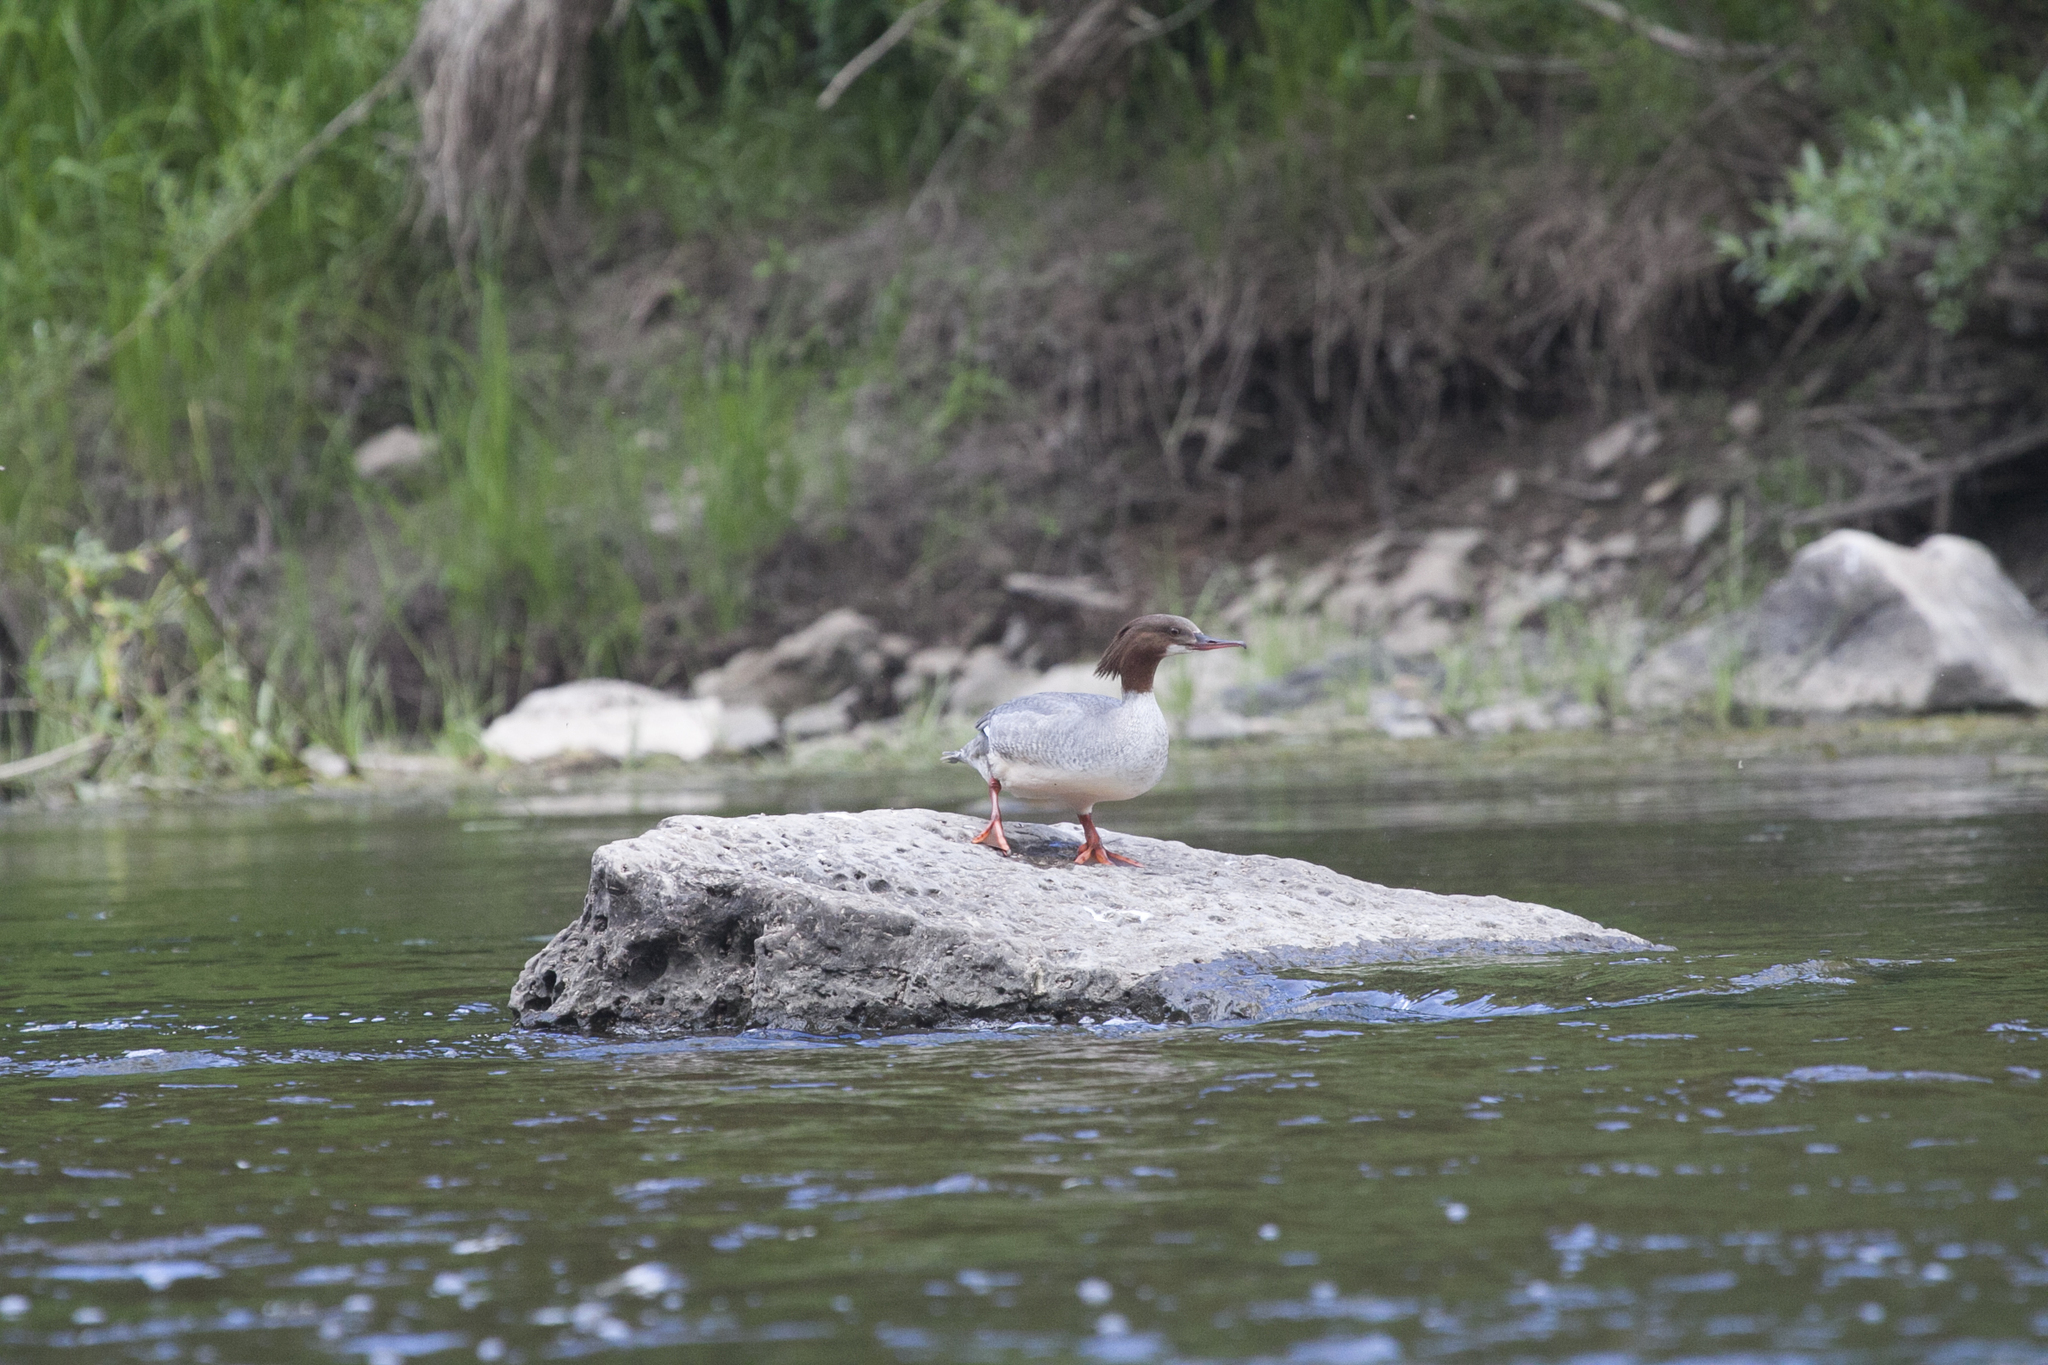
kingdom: Animalia
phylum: Chordata
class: Aves
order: Anseriformes
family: Anatidae
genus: Mergus
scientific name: Mergus merganser
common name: Common merganser
